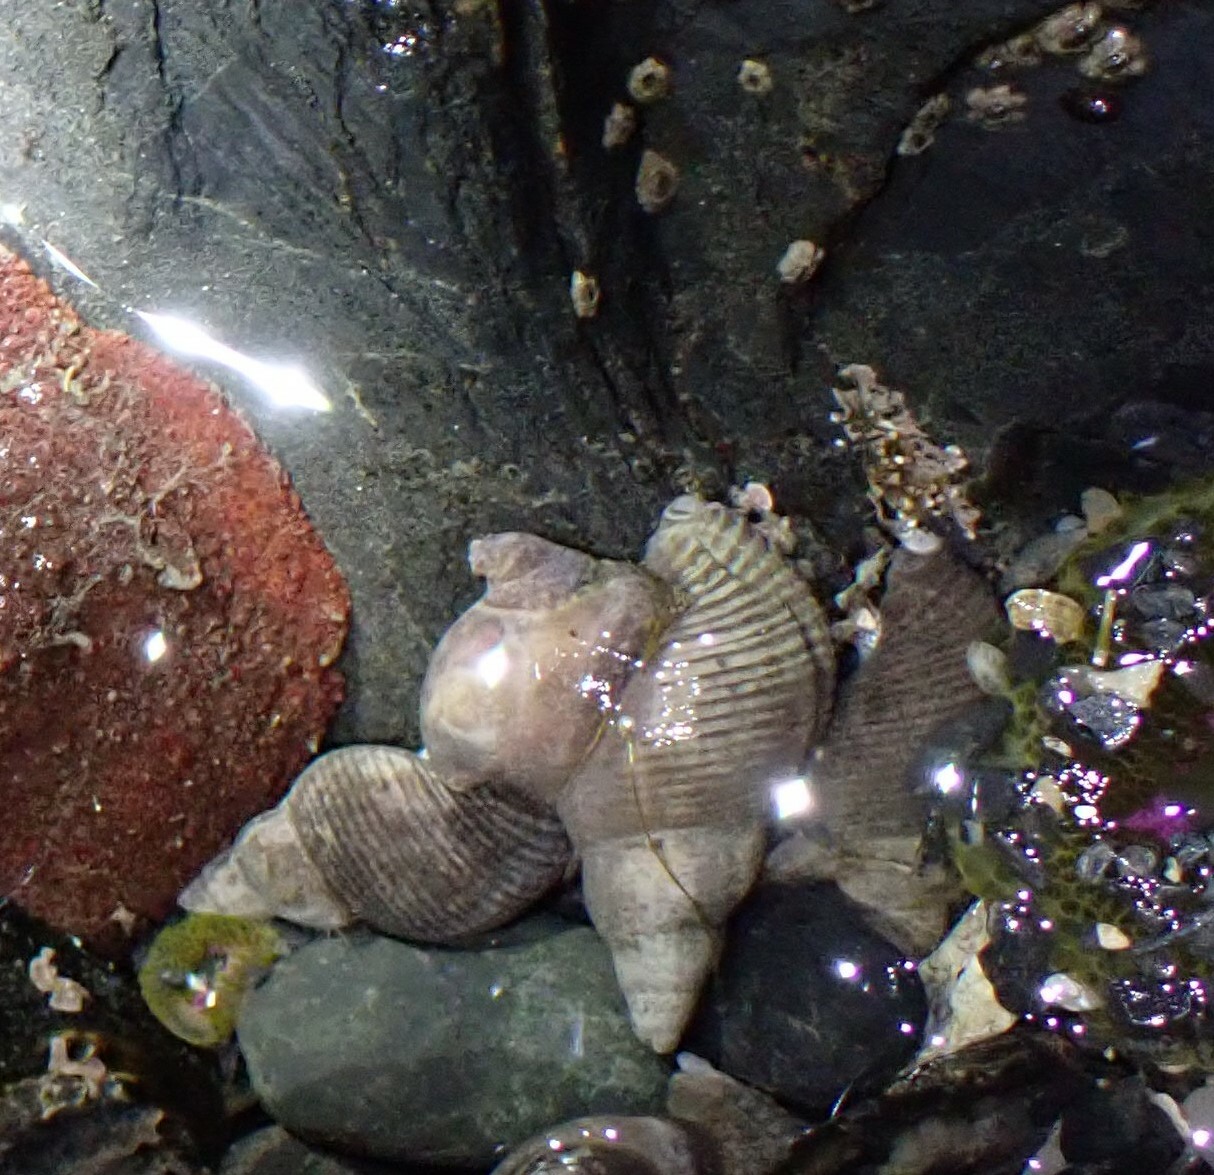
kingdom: Animalia
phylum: Mollusca
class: Gastropoda
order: Neogastropoda
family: Tudiclidae
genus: Lirabuccinum
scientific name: Lirabuccinum dirum
